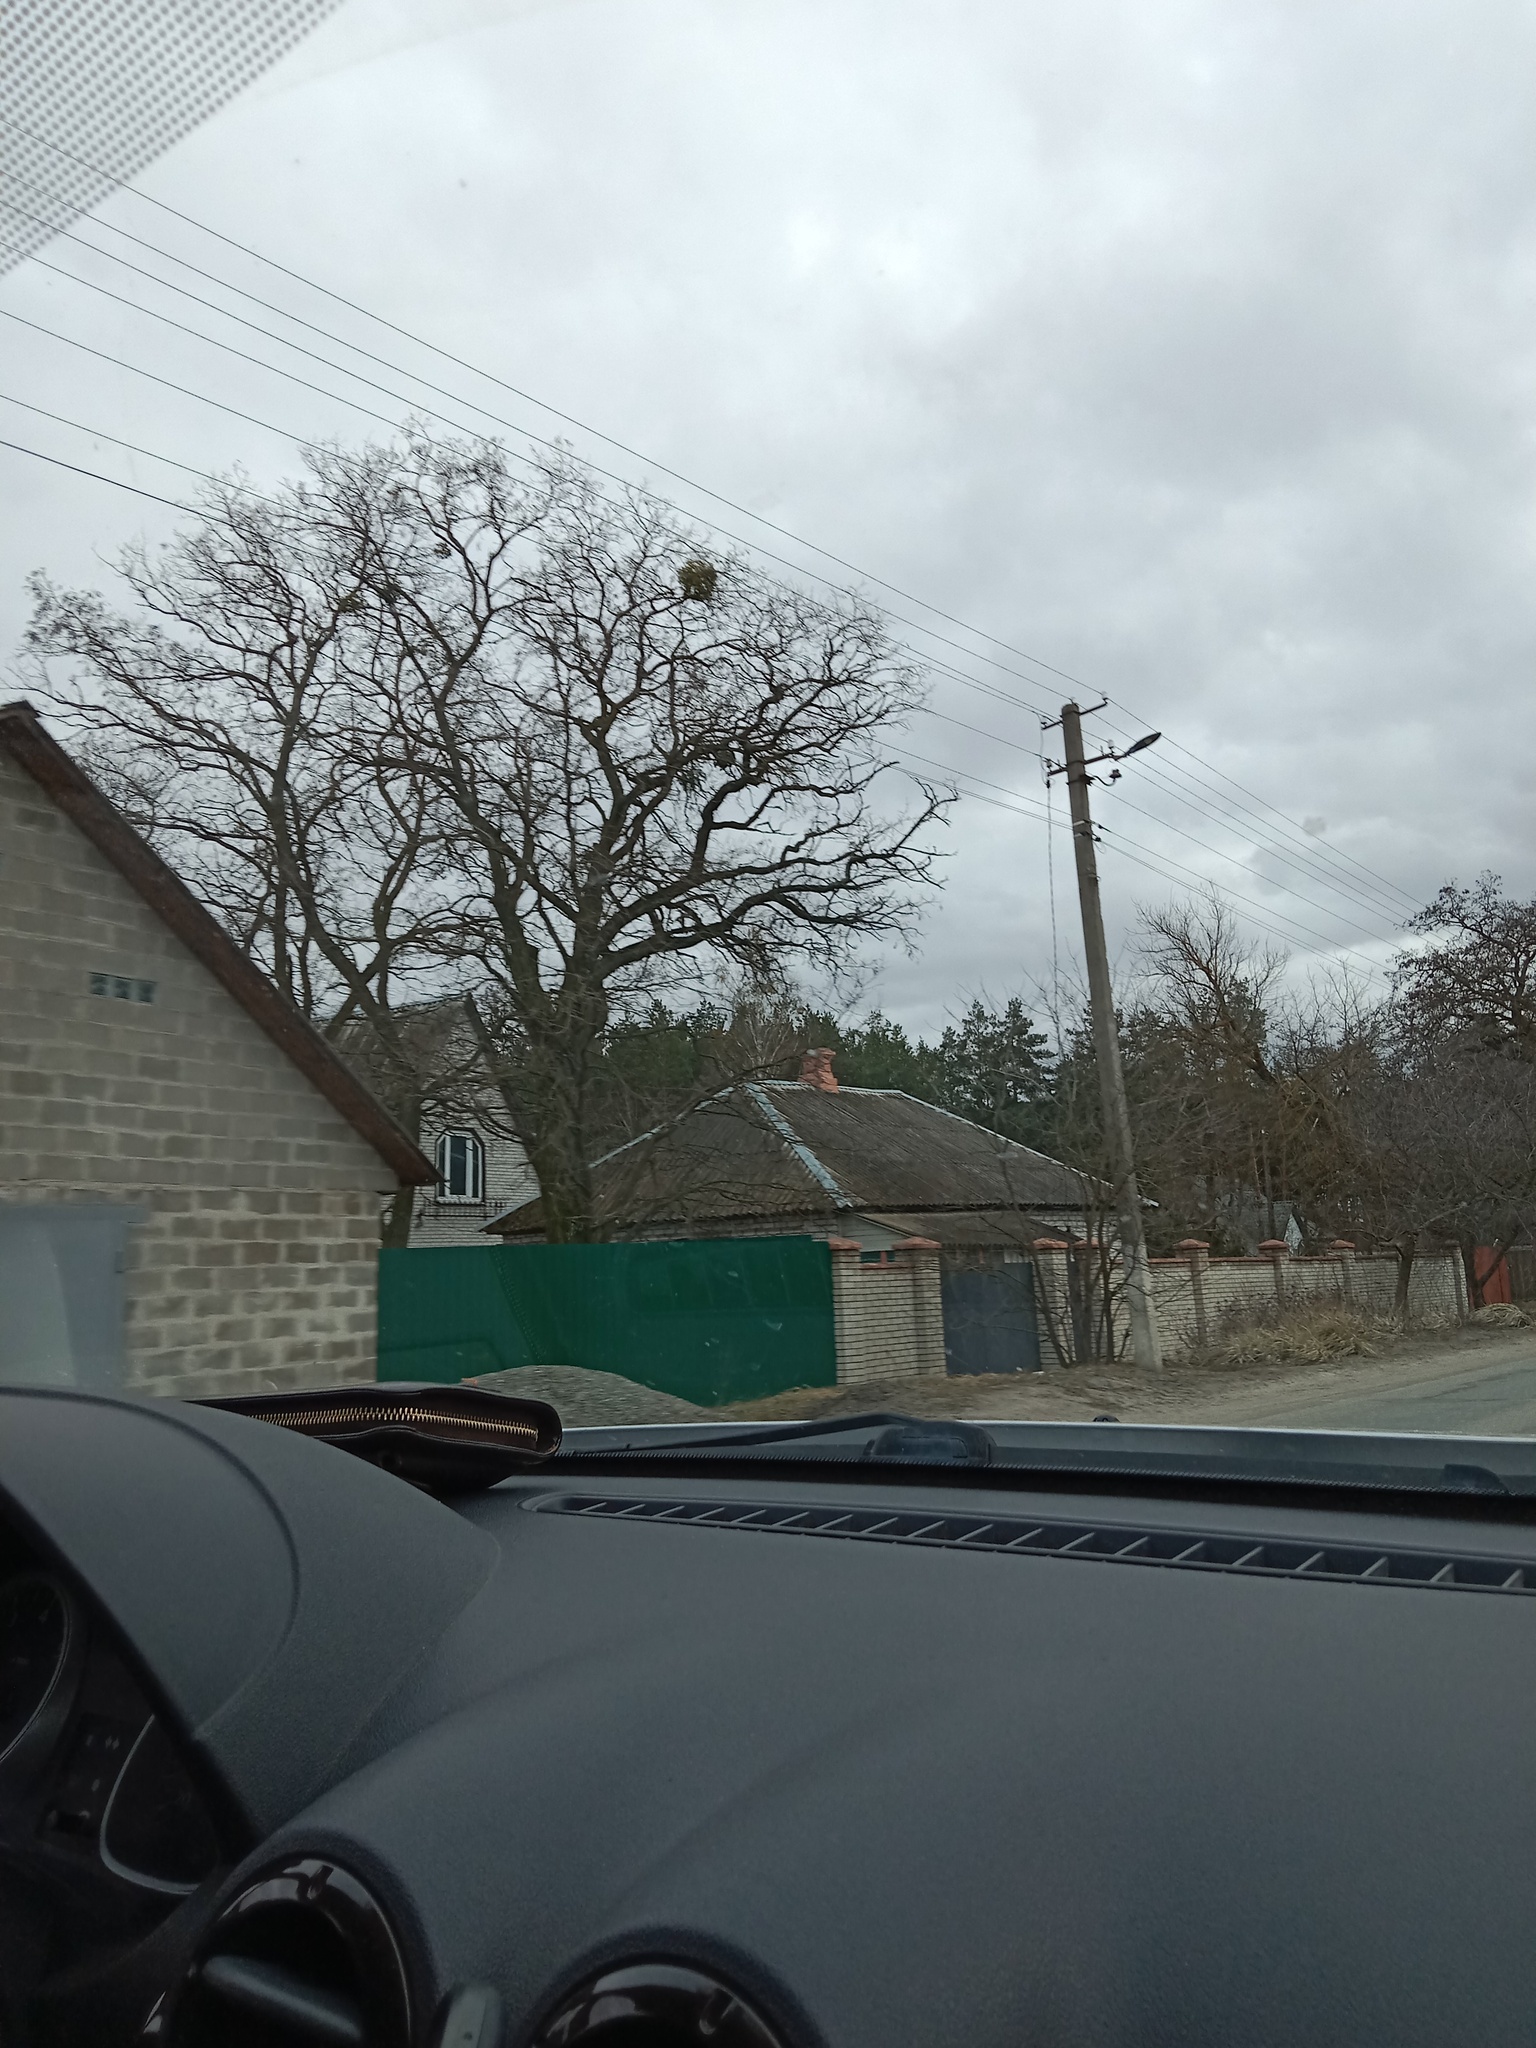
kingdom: Plantae
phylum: Tracheophyta
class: Magnoliopsida
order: Santalales
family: Viscaceae
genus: Viscum
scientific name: Viscum album
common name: Mistletoe
